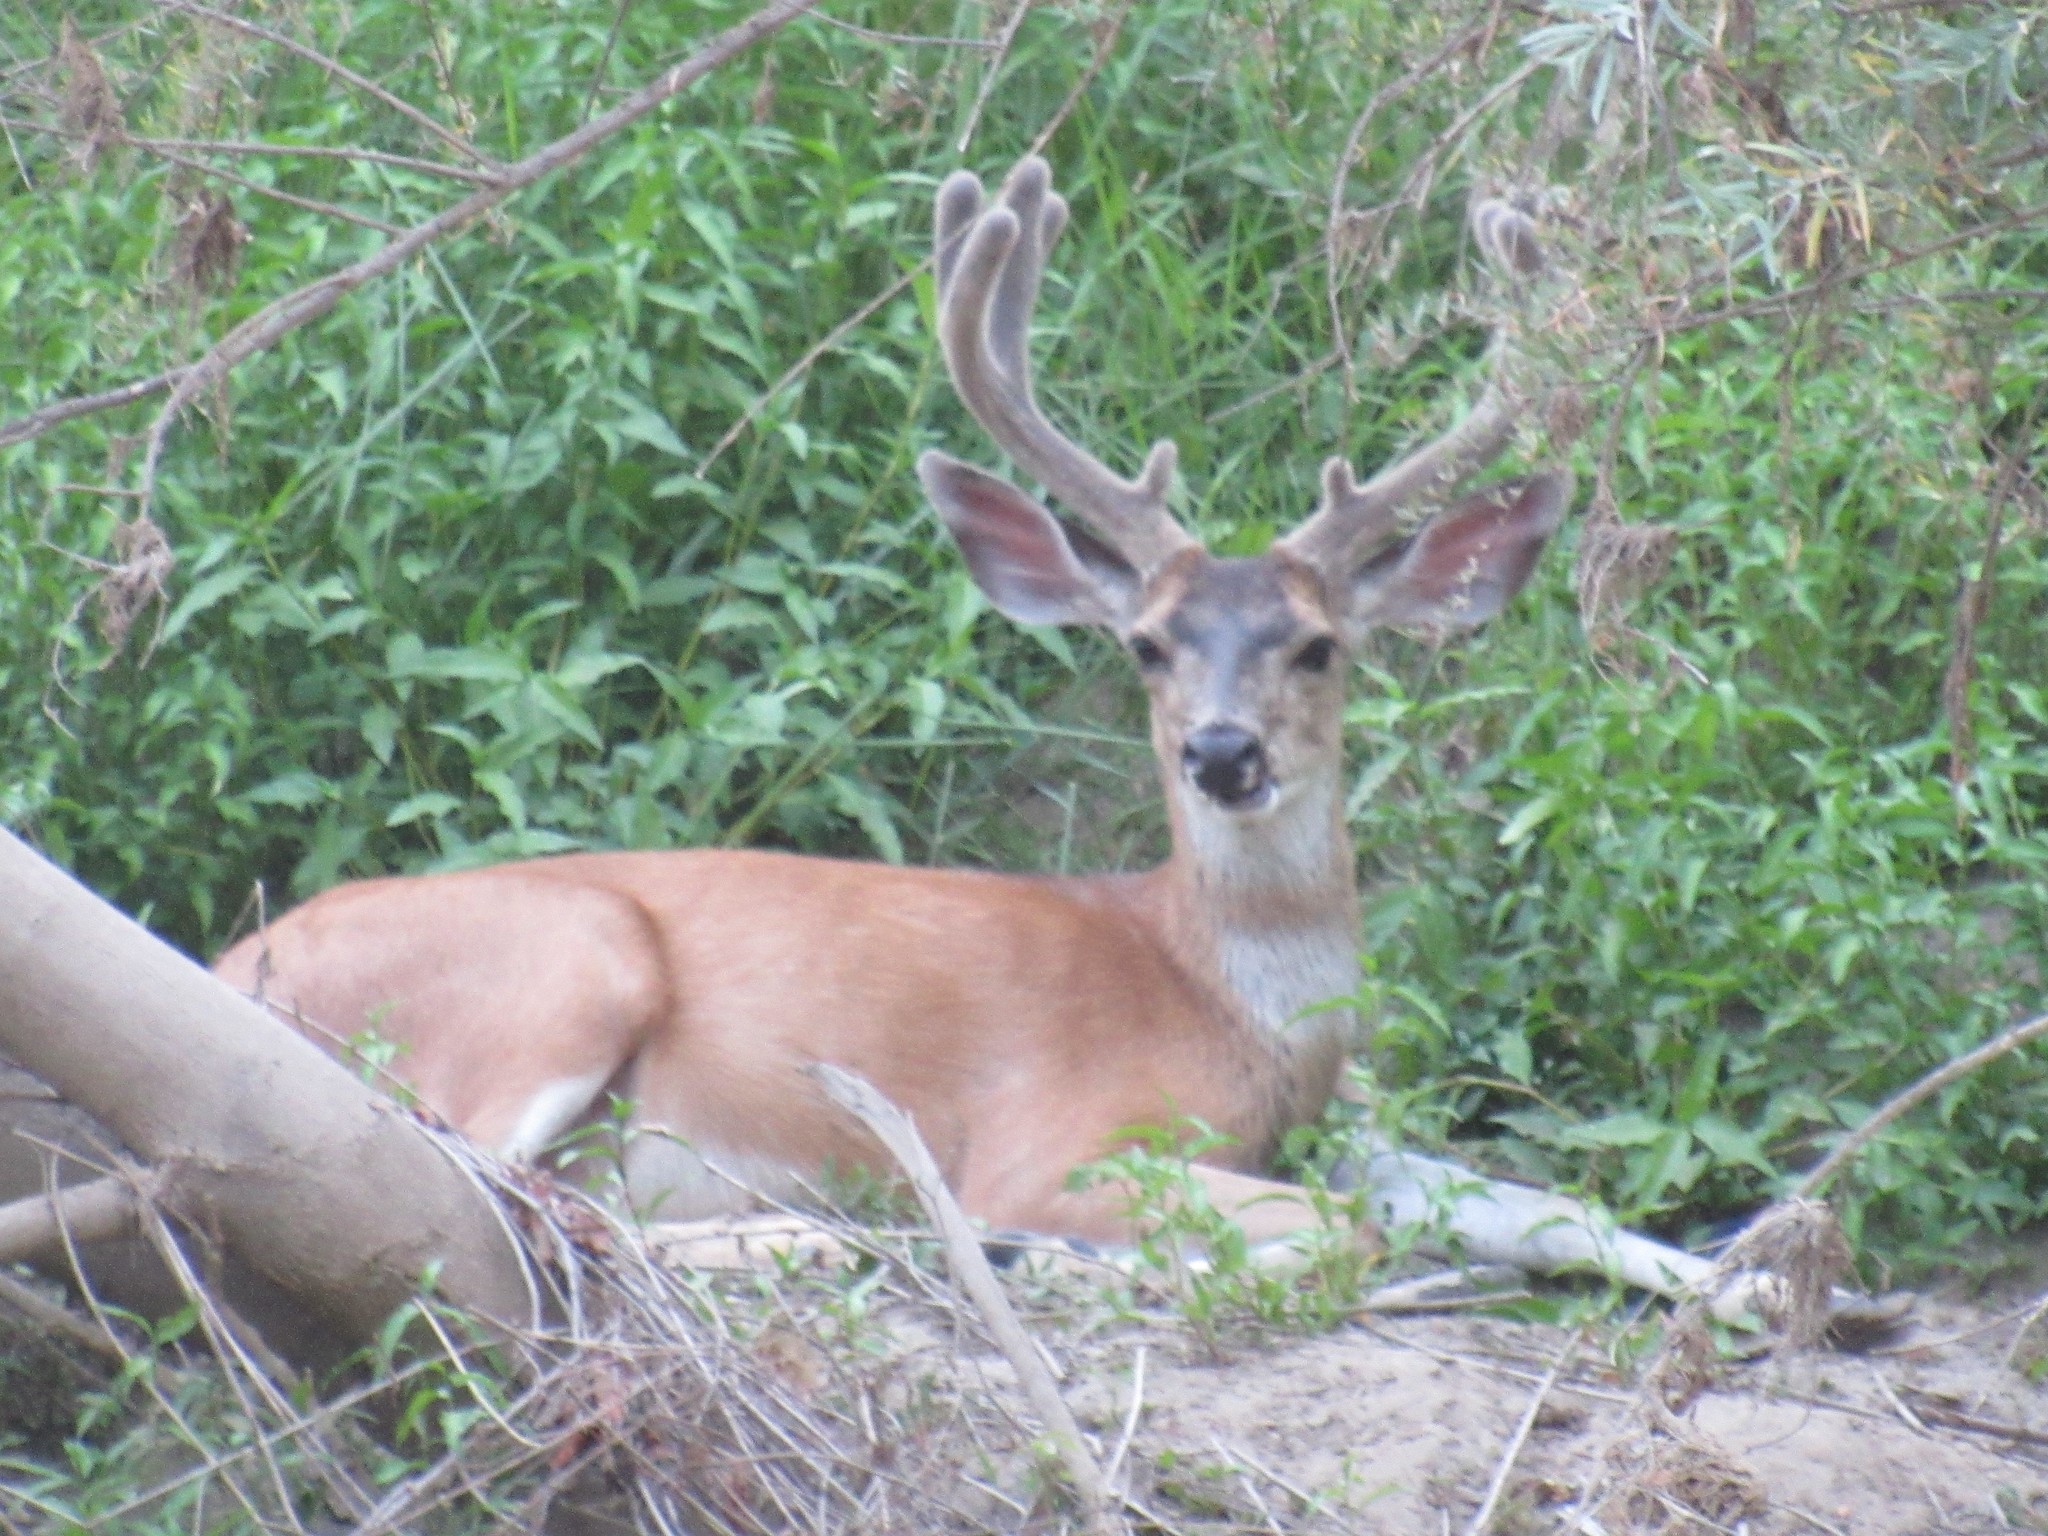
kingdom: Animalia
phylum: Chordata
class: Mammalia
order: Artiodactyla
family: Cervidae
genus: Odocoileus
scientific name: Odocoileus hemionus
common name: Mule deer
